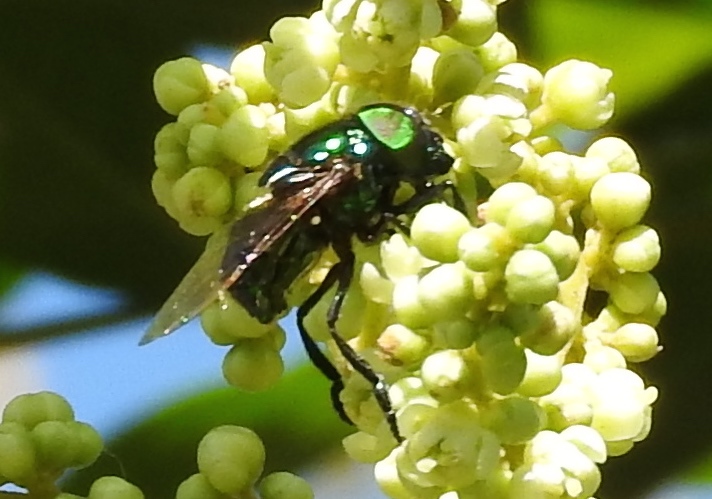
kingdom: Animalia
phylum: Arthropoda
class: Insecta
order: Diptera
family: Syrphidae
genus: Ornidia
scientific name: Ornidia
